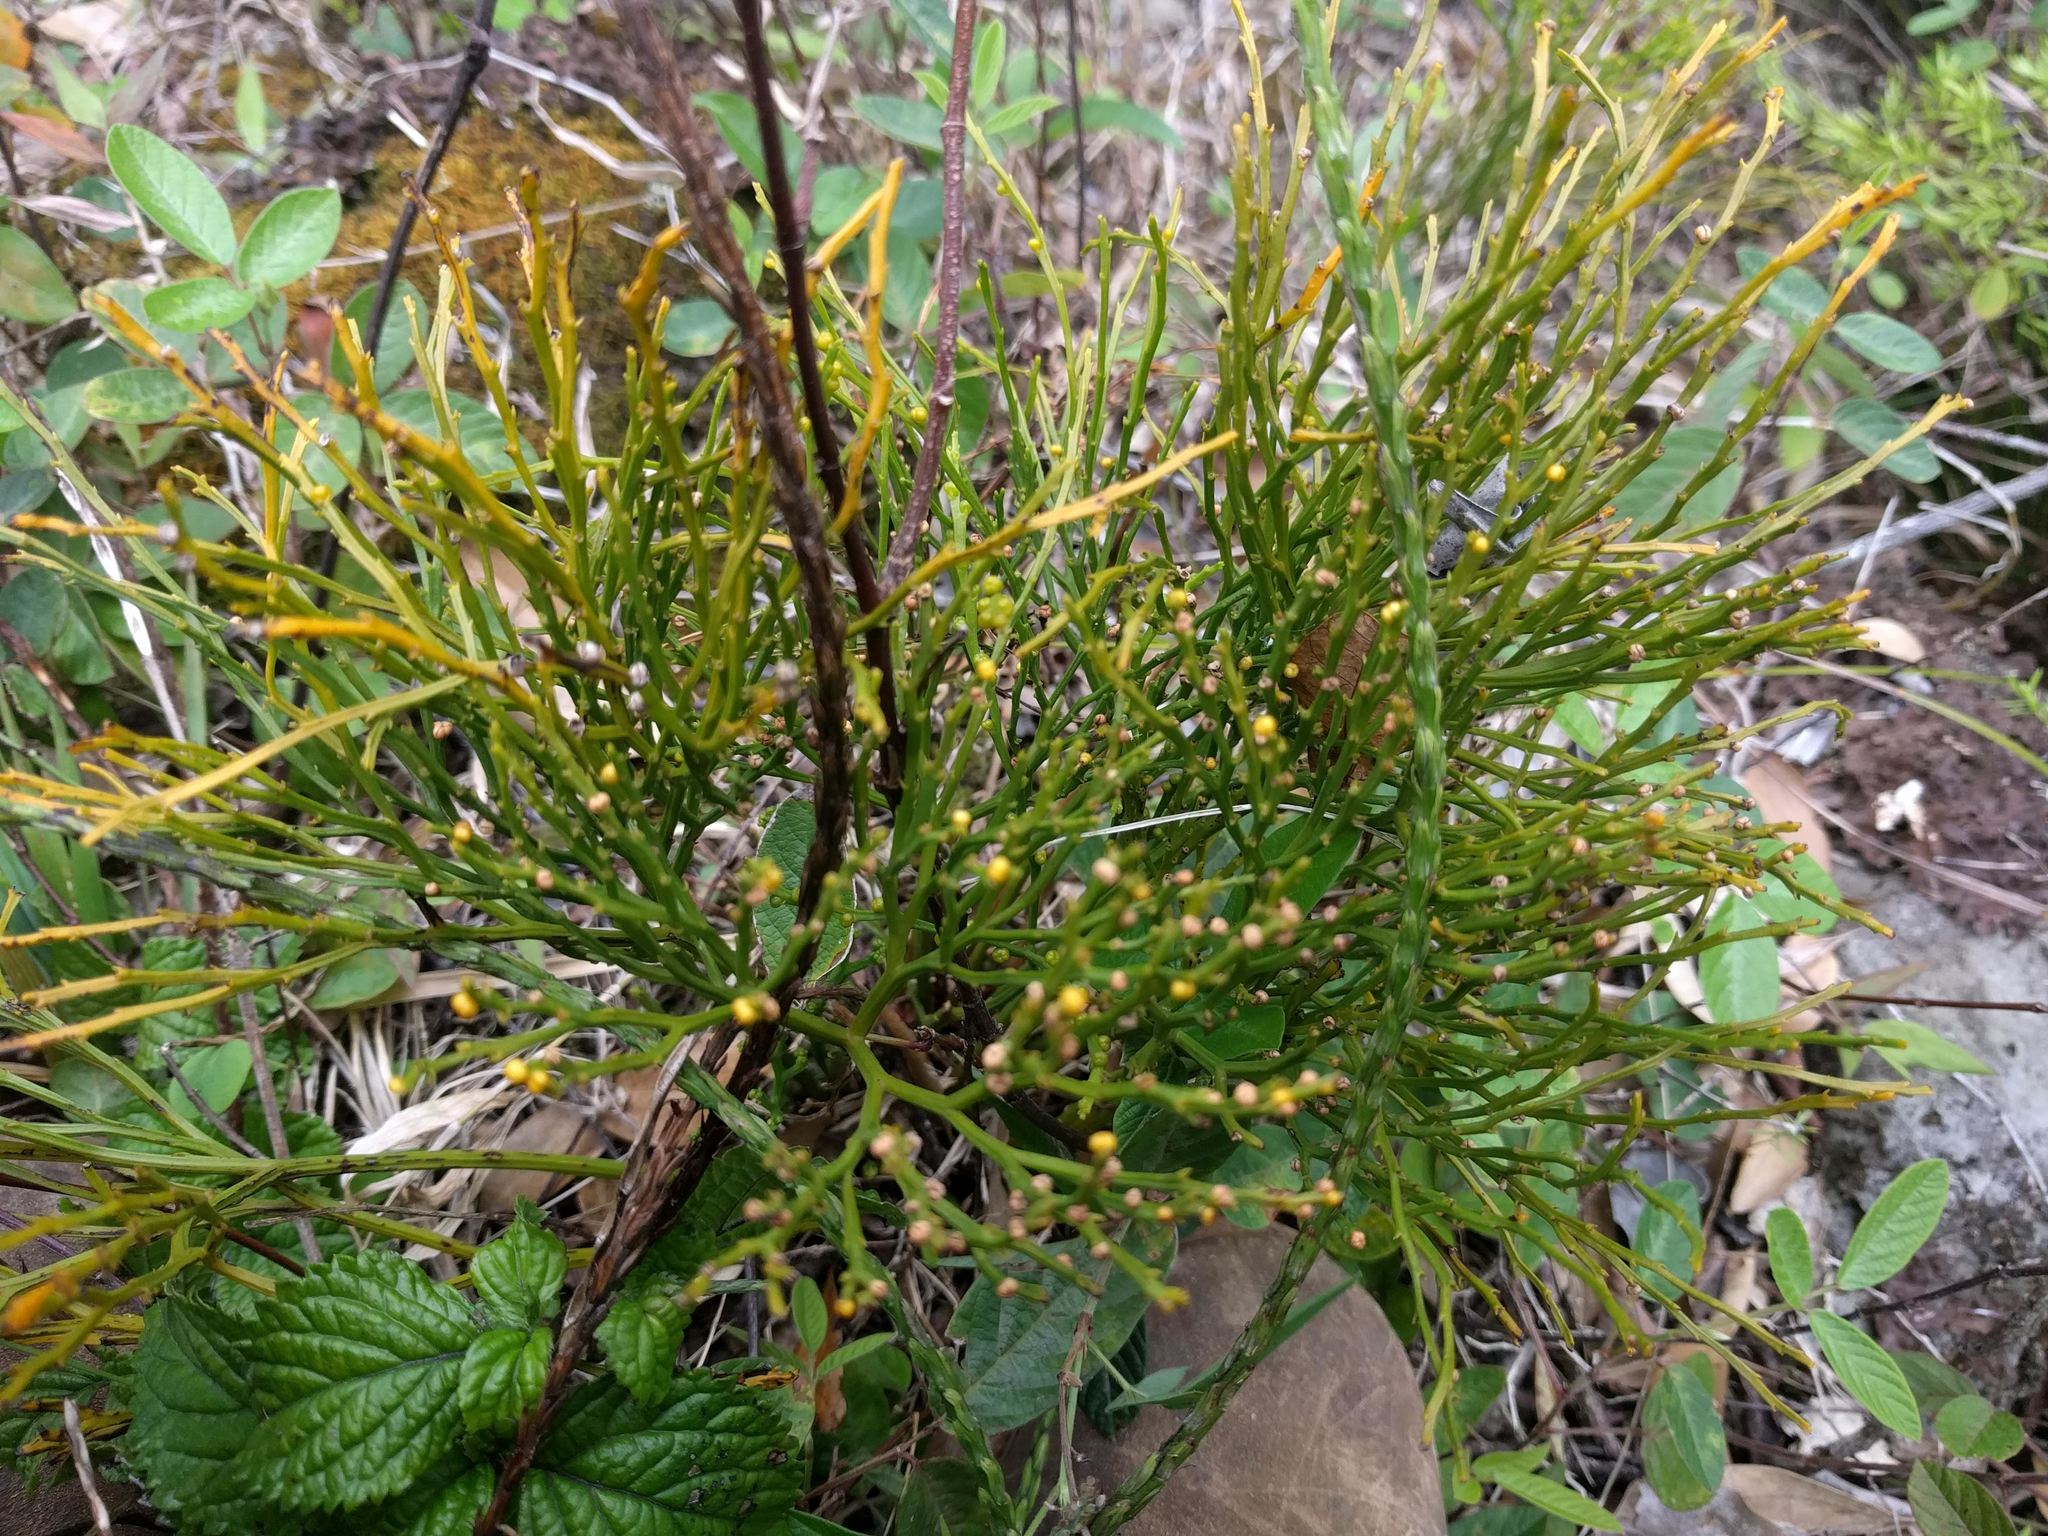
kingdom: Plantae
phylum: Tracheophyta
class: Polypodiopsida
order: Psilotales
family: Psilotaceae
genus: Psilotum
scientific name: Psilotum nudum
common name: Skeleton fork fern
